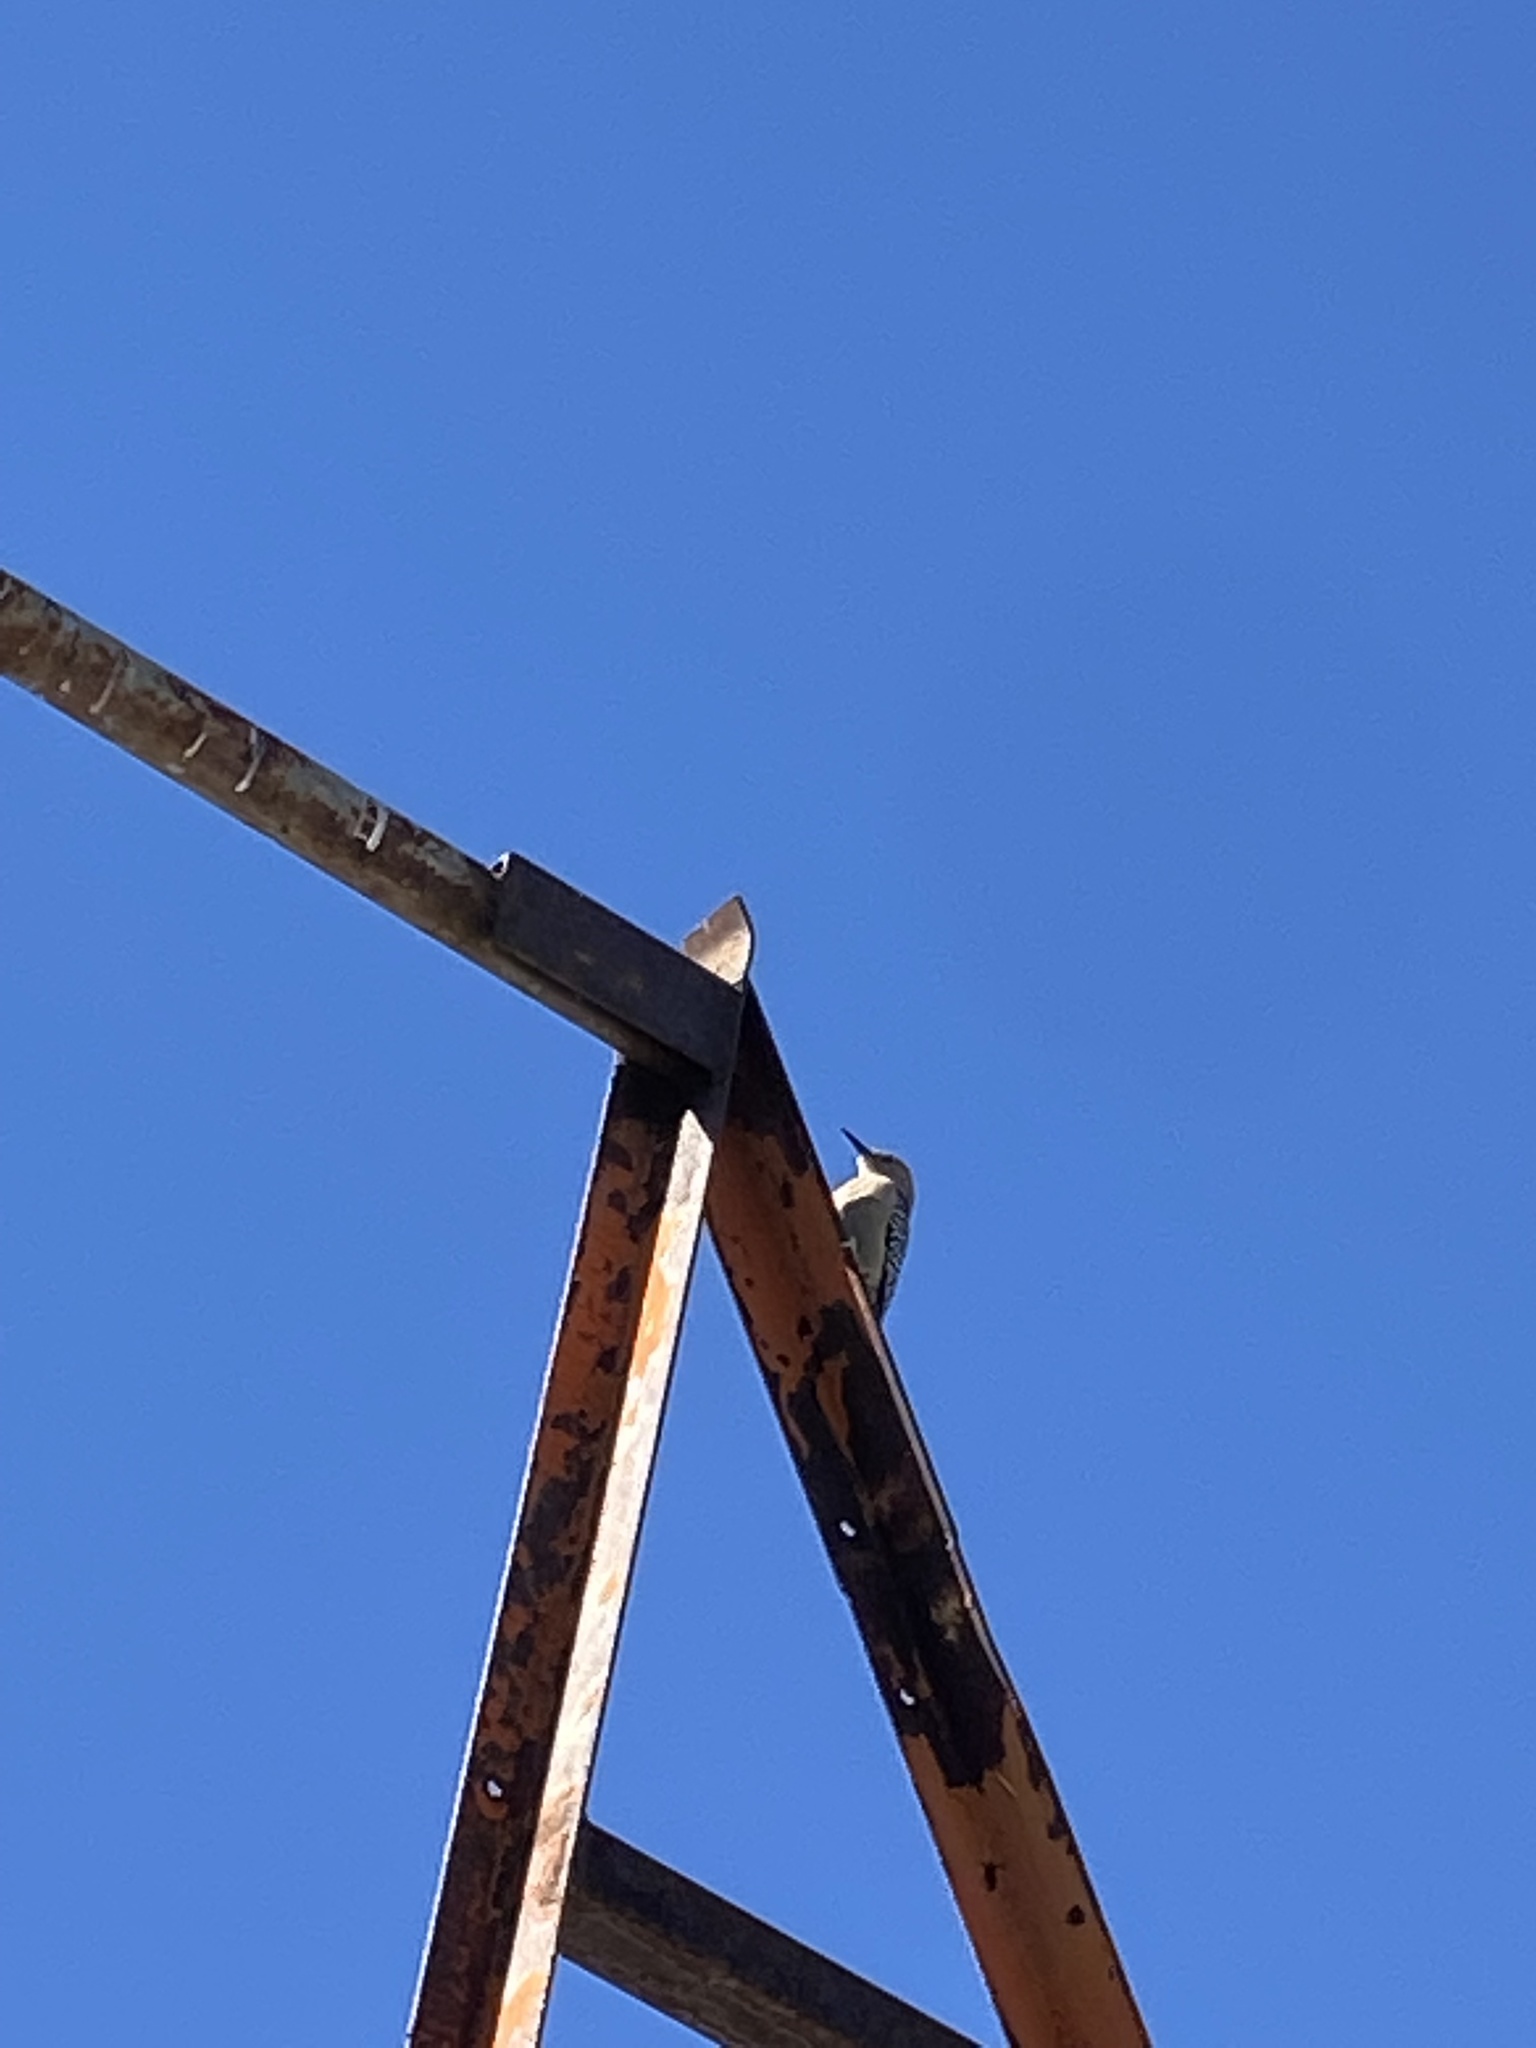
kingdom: Animalia
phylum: Chordata
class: Aves
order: Piciformes
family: Picidae
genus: Melanerpes
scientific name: Melanerpes uropygialis
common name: Gila woodpecker
